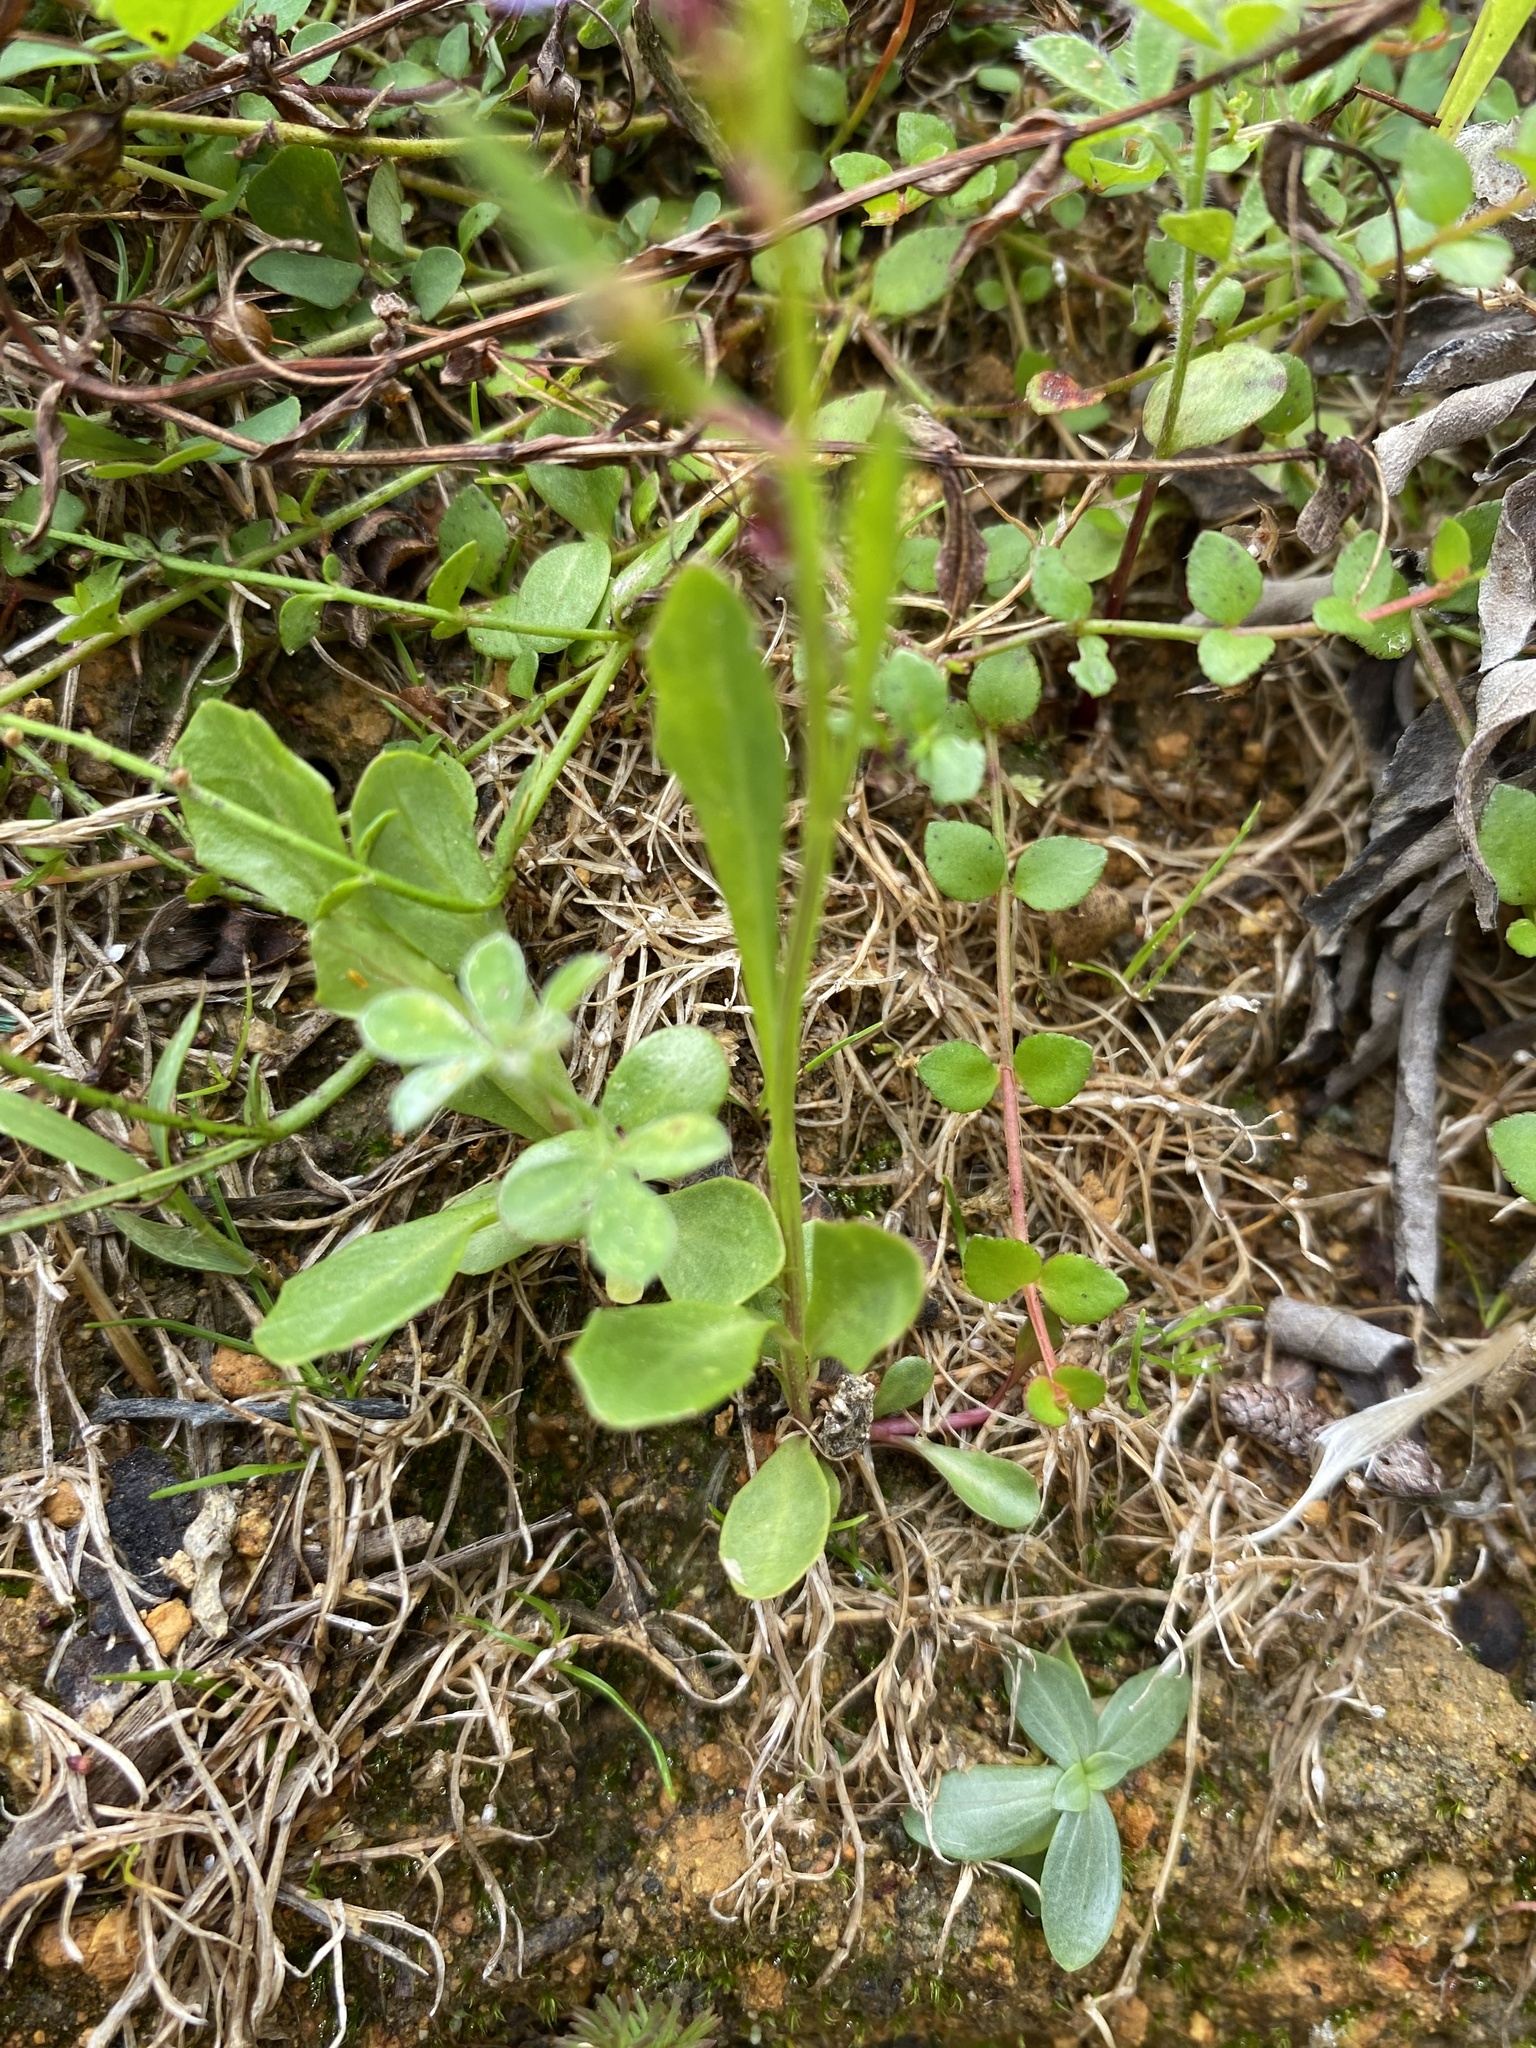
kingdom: Plantae
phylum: Tracheophyta
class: Magnoliopsida
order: Asterales
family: Campanulaceae
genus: Lobelia
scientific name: Lobelia anceps
